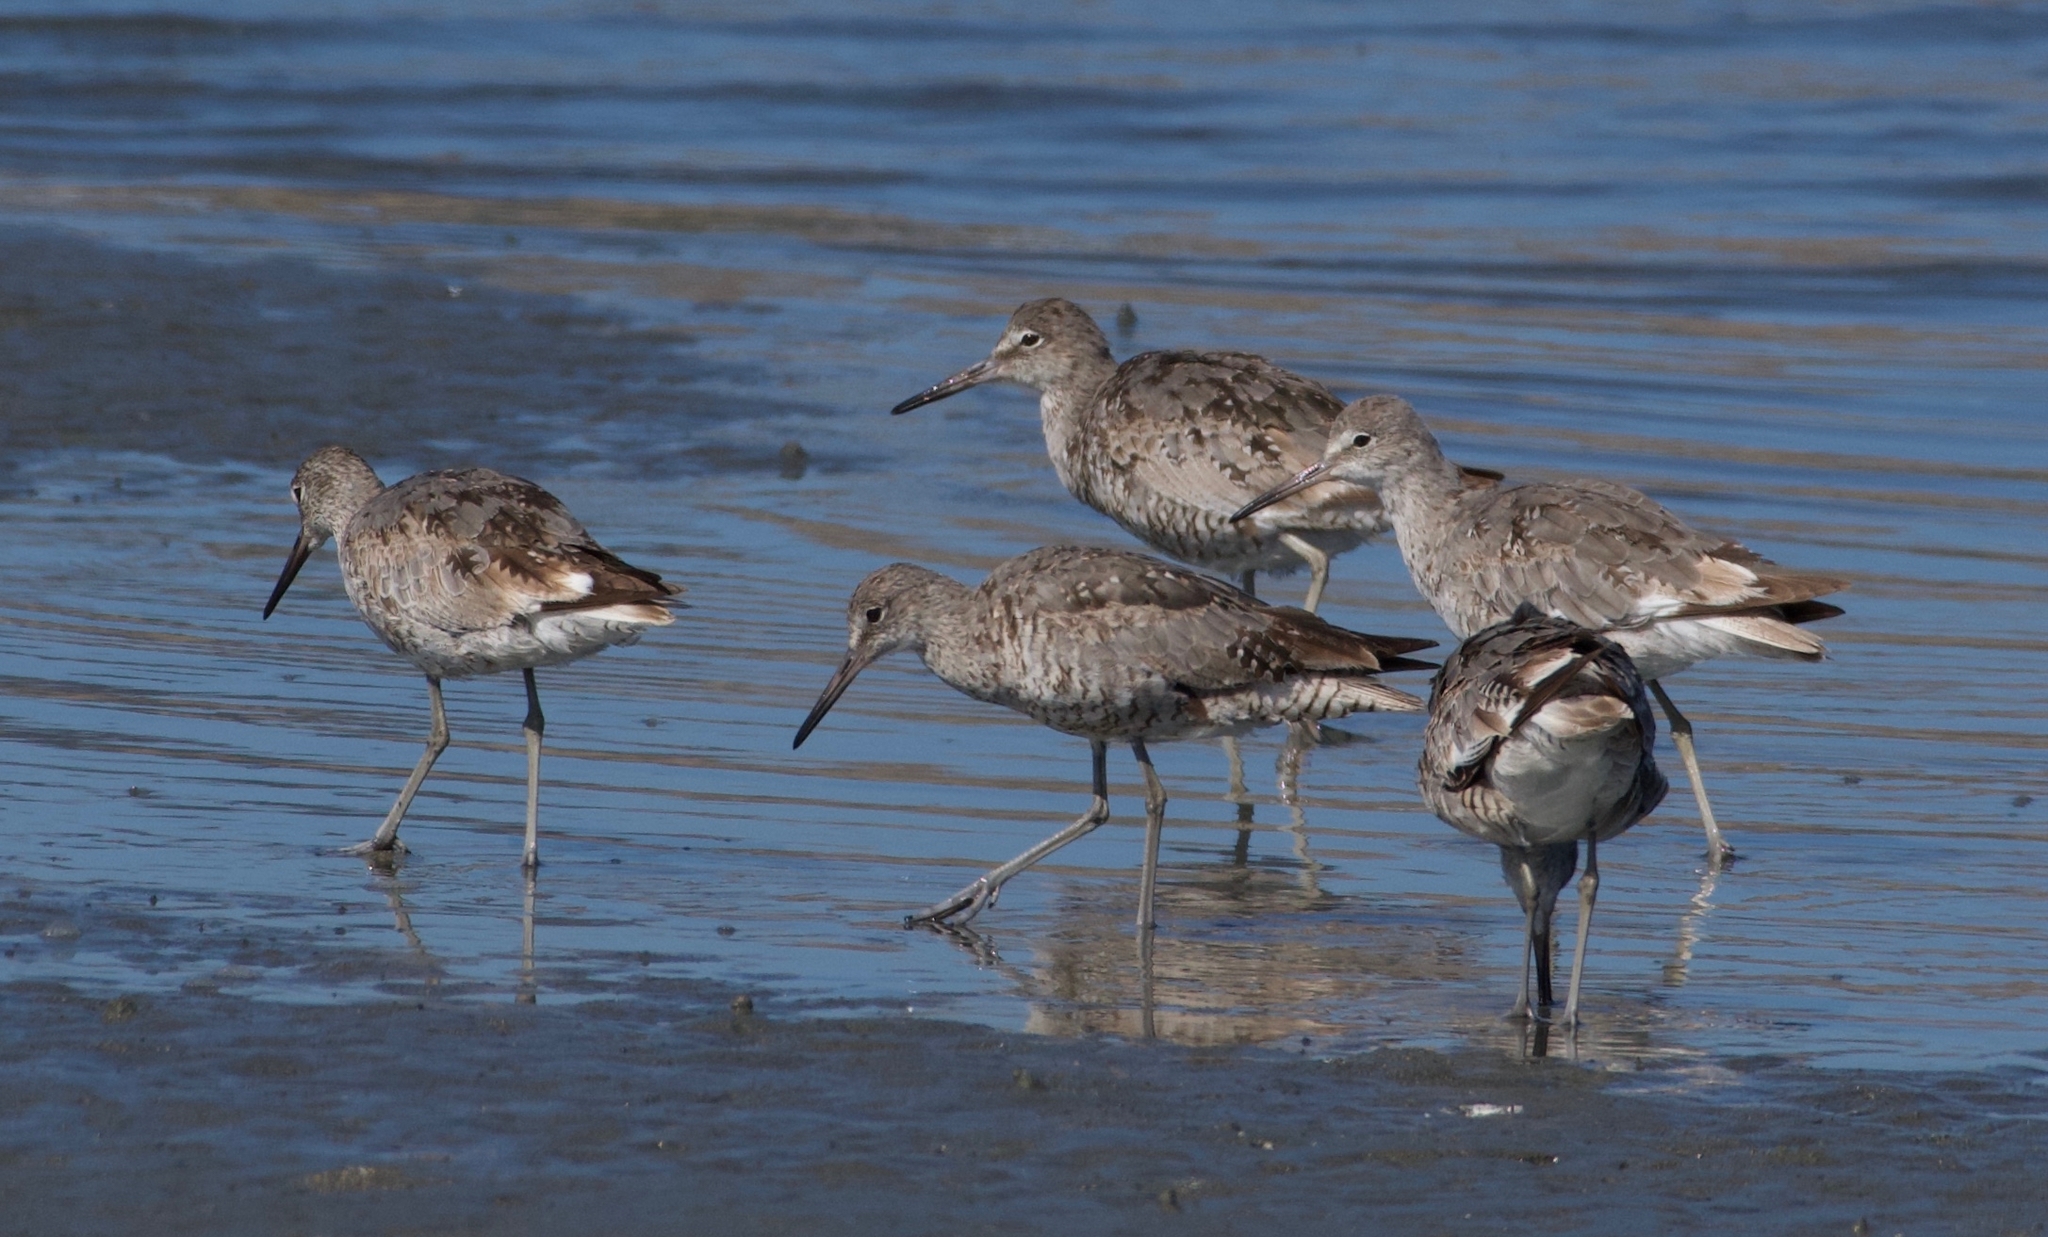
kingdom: Animalia
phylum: Chordata
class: Aves
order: Charadriiformes
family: Scolopacidae
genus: Tringa
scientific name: Tringa semipalmata
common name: Willet
